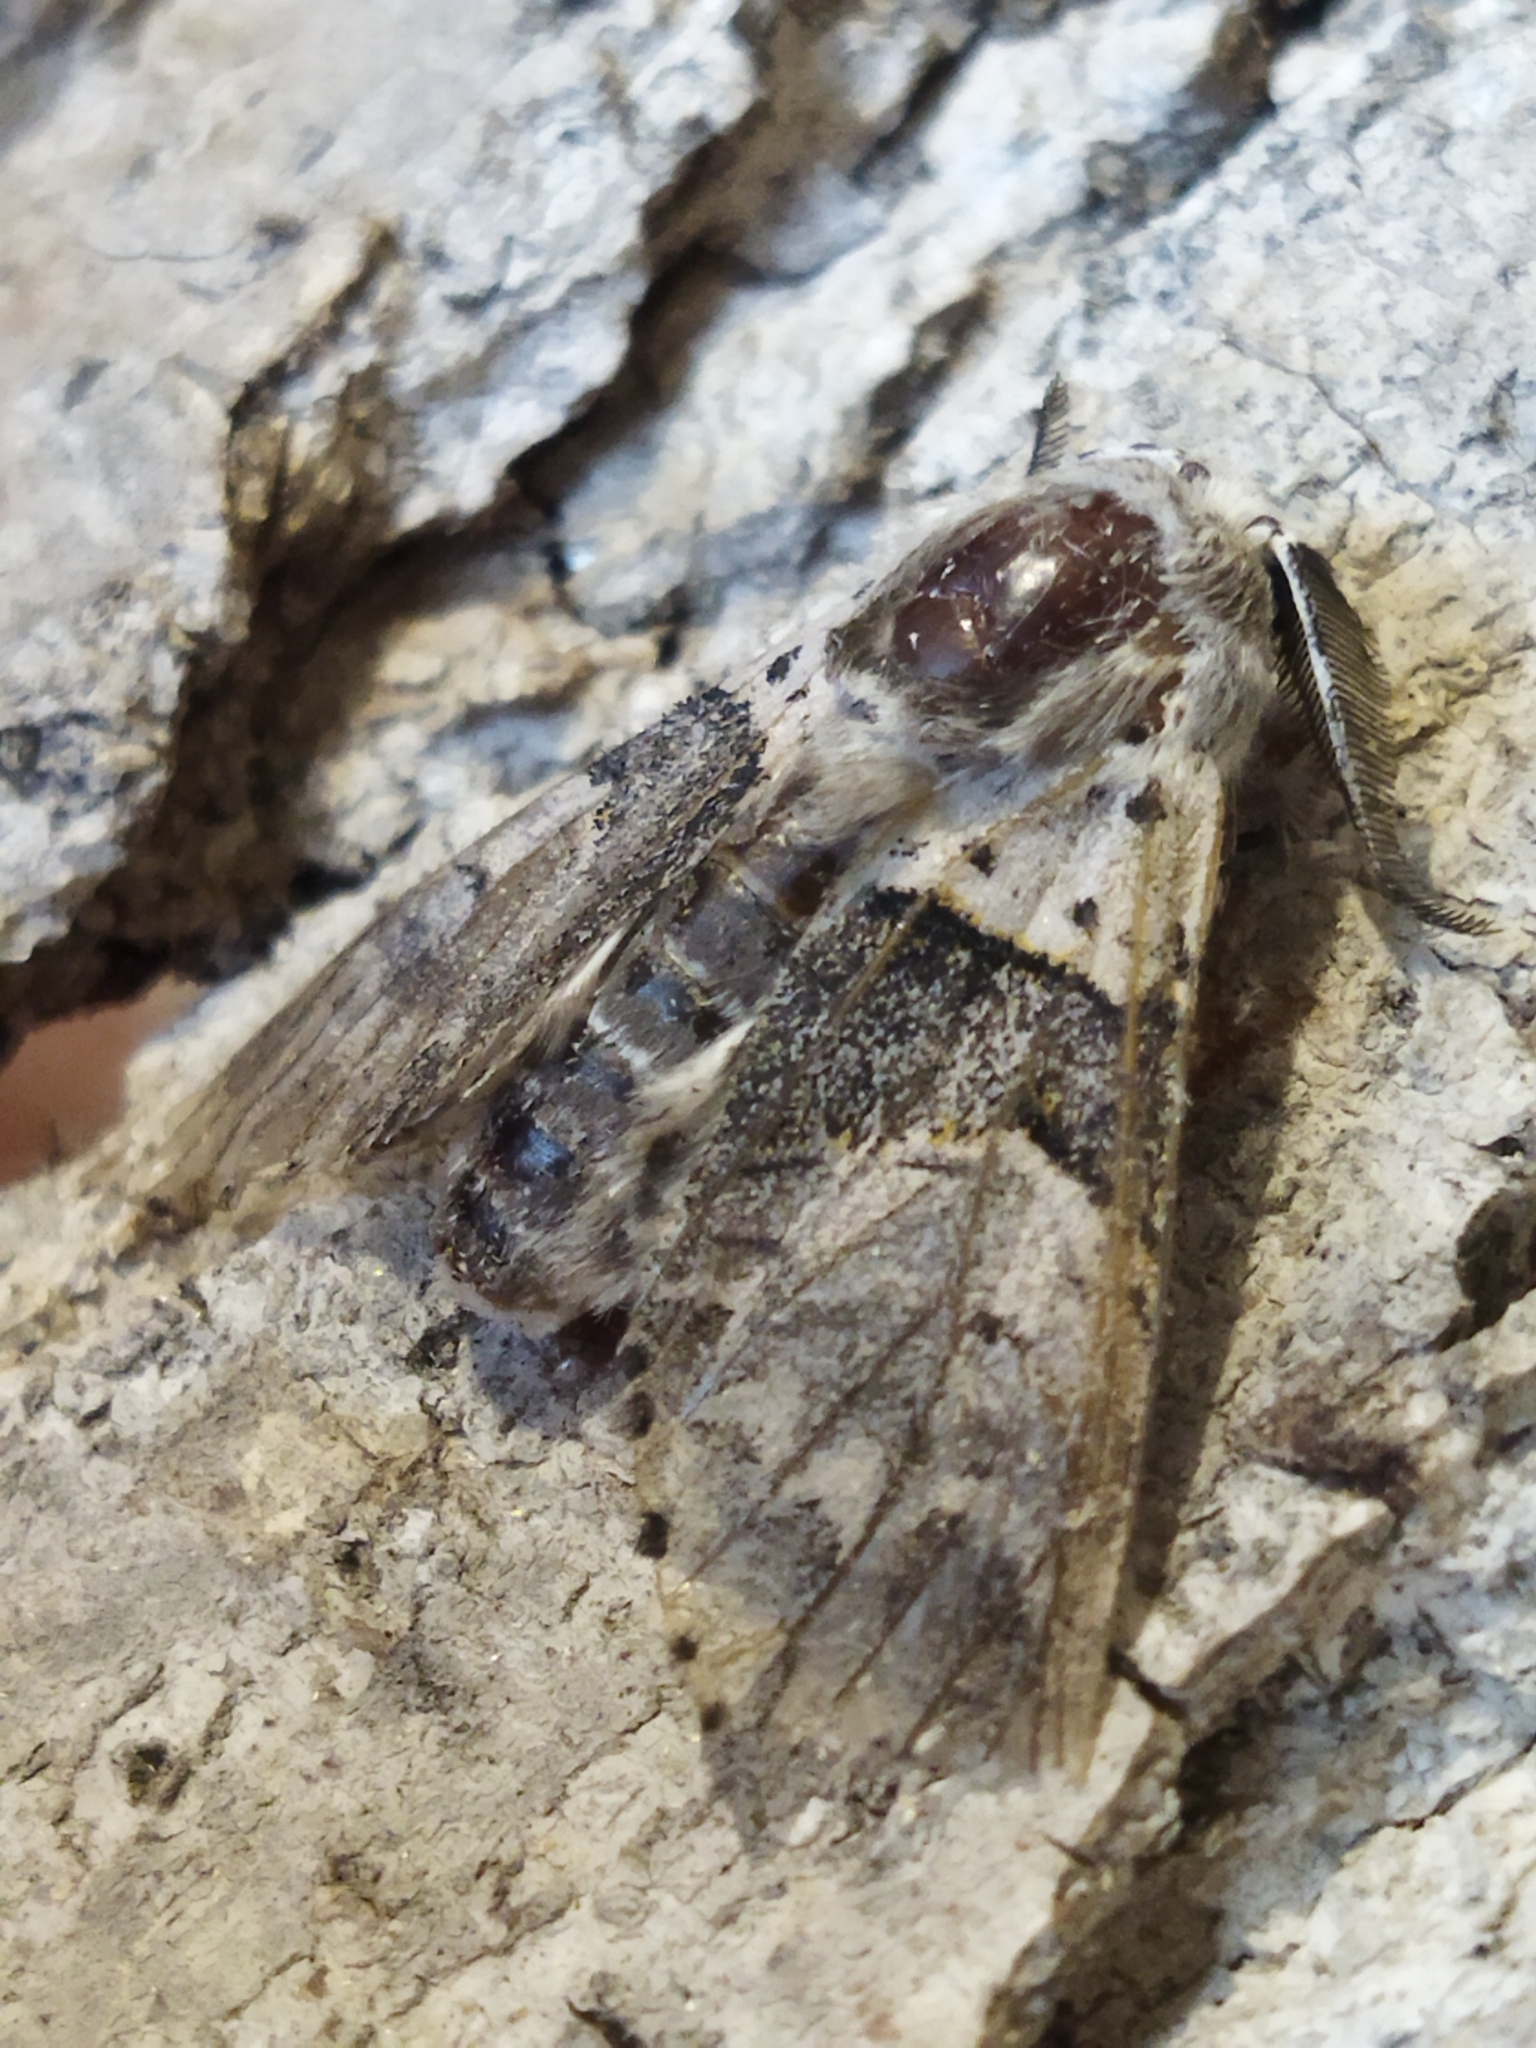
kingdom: Animalia
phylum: Arthropoda
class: Insecta
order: Lepidoptera
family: Notodontidae
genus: Furcula
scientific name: Furcula bifida
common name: Poplar kitten
